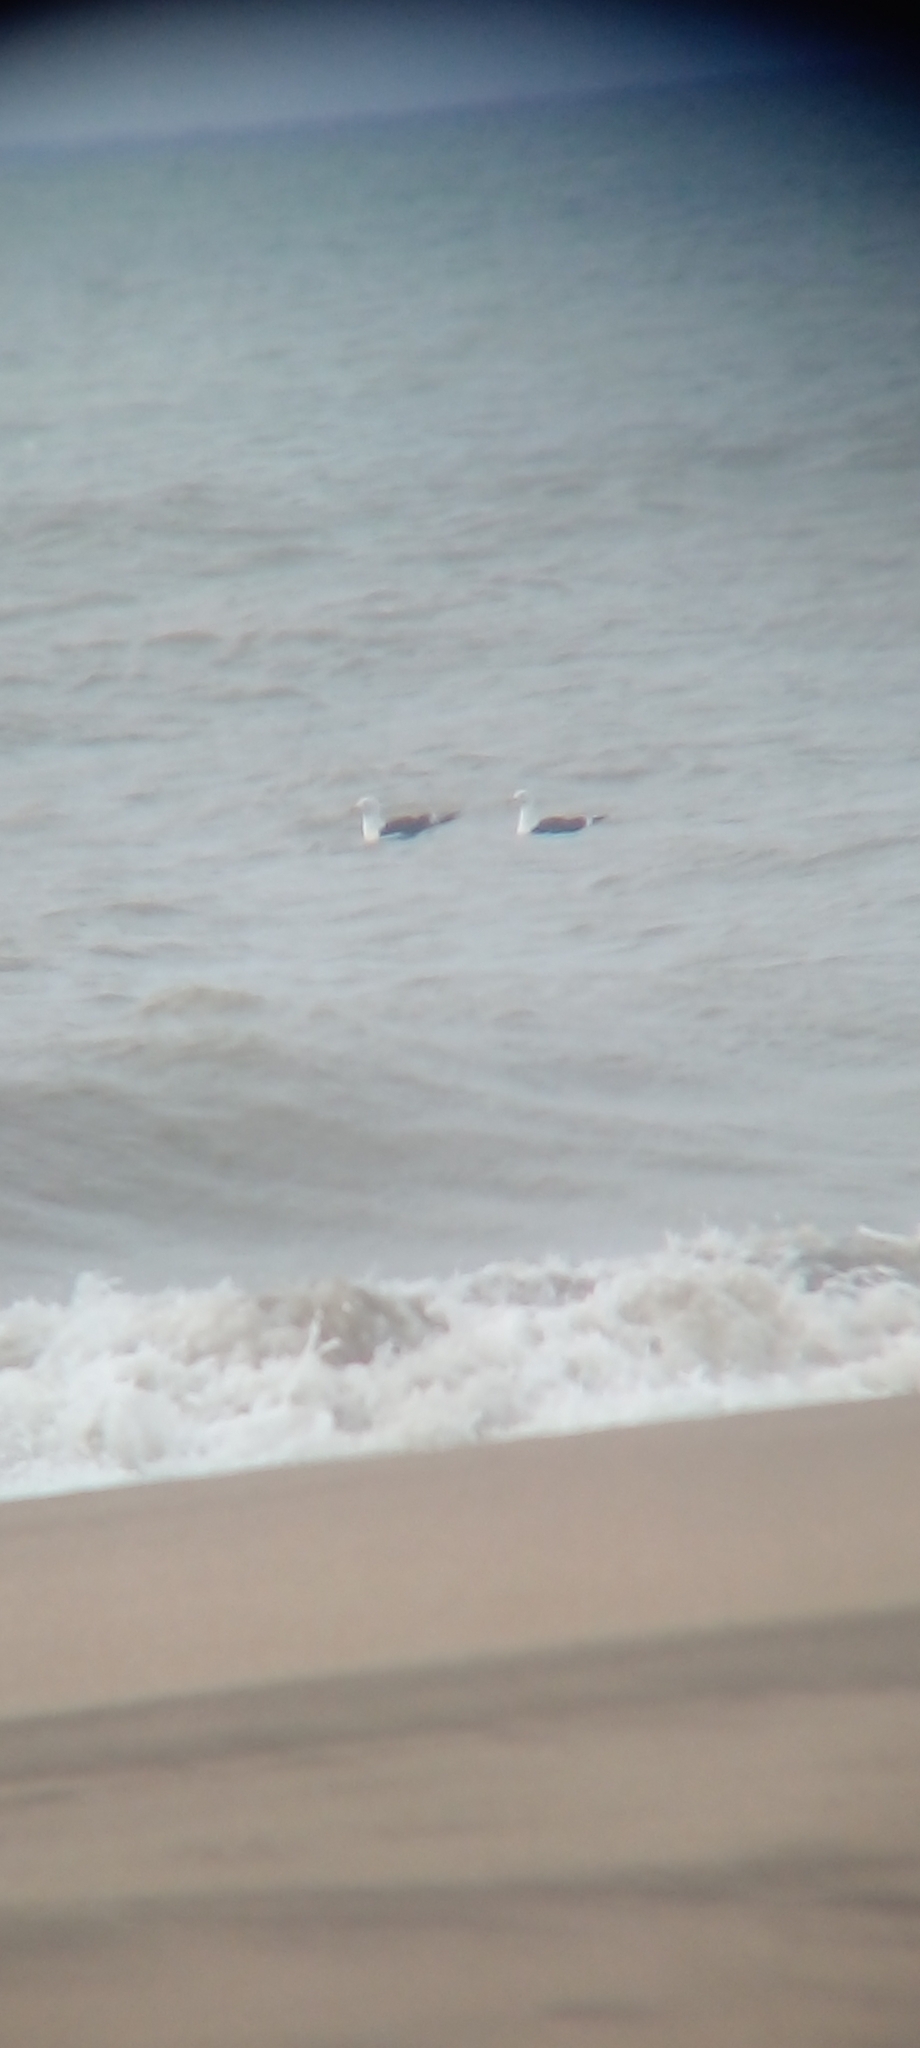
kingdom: Animalia
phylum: Chordata
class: Aves
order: Charadriiformes
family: Laridae
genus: Larus
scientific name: Larus dominicanus
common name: Kelp gull
